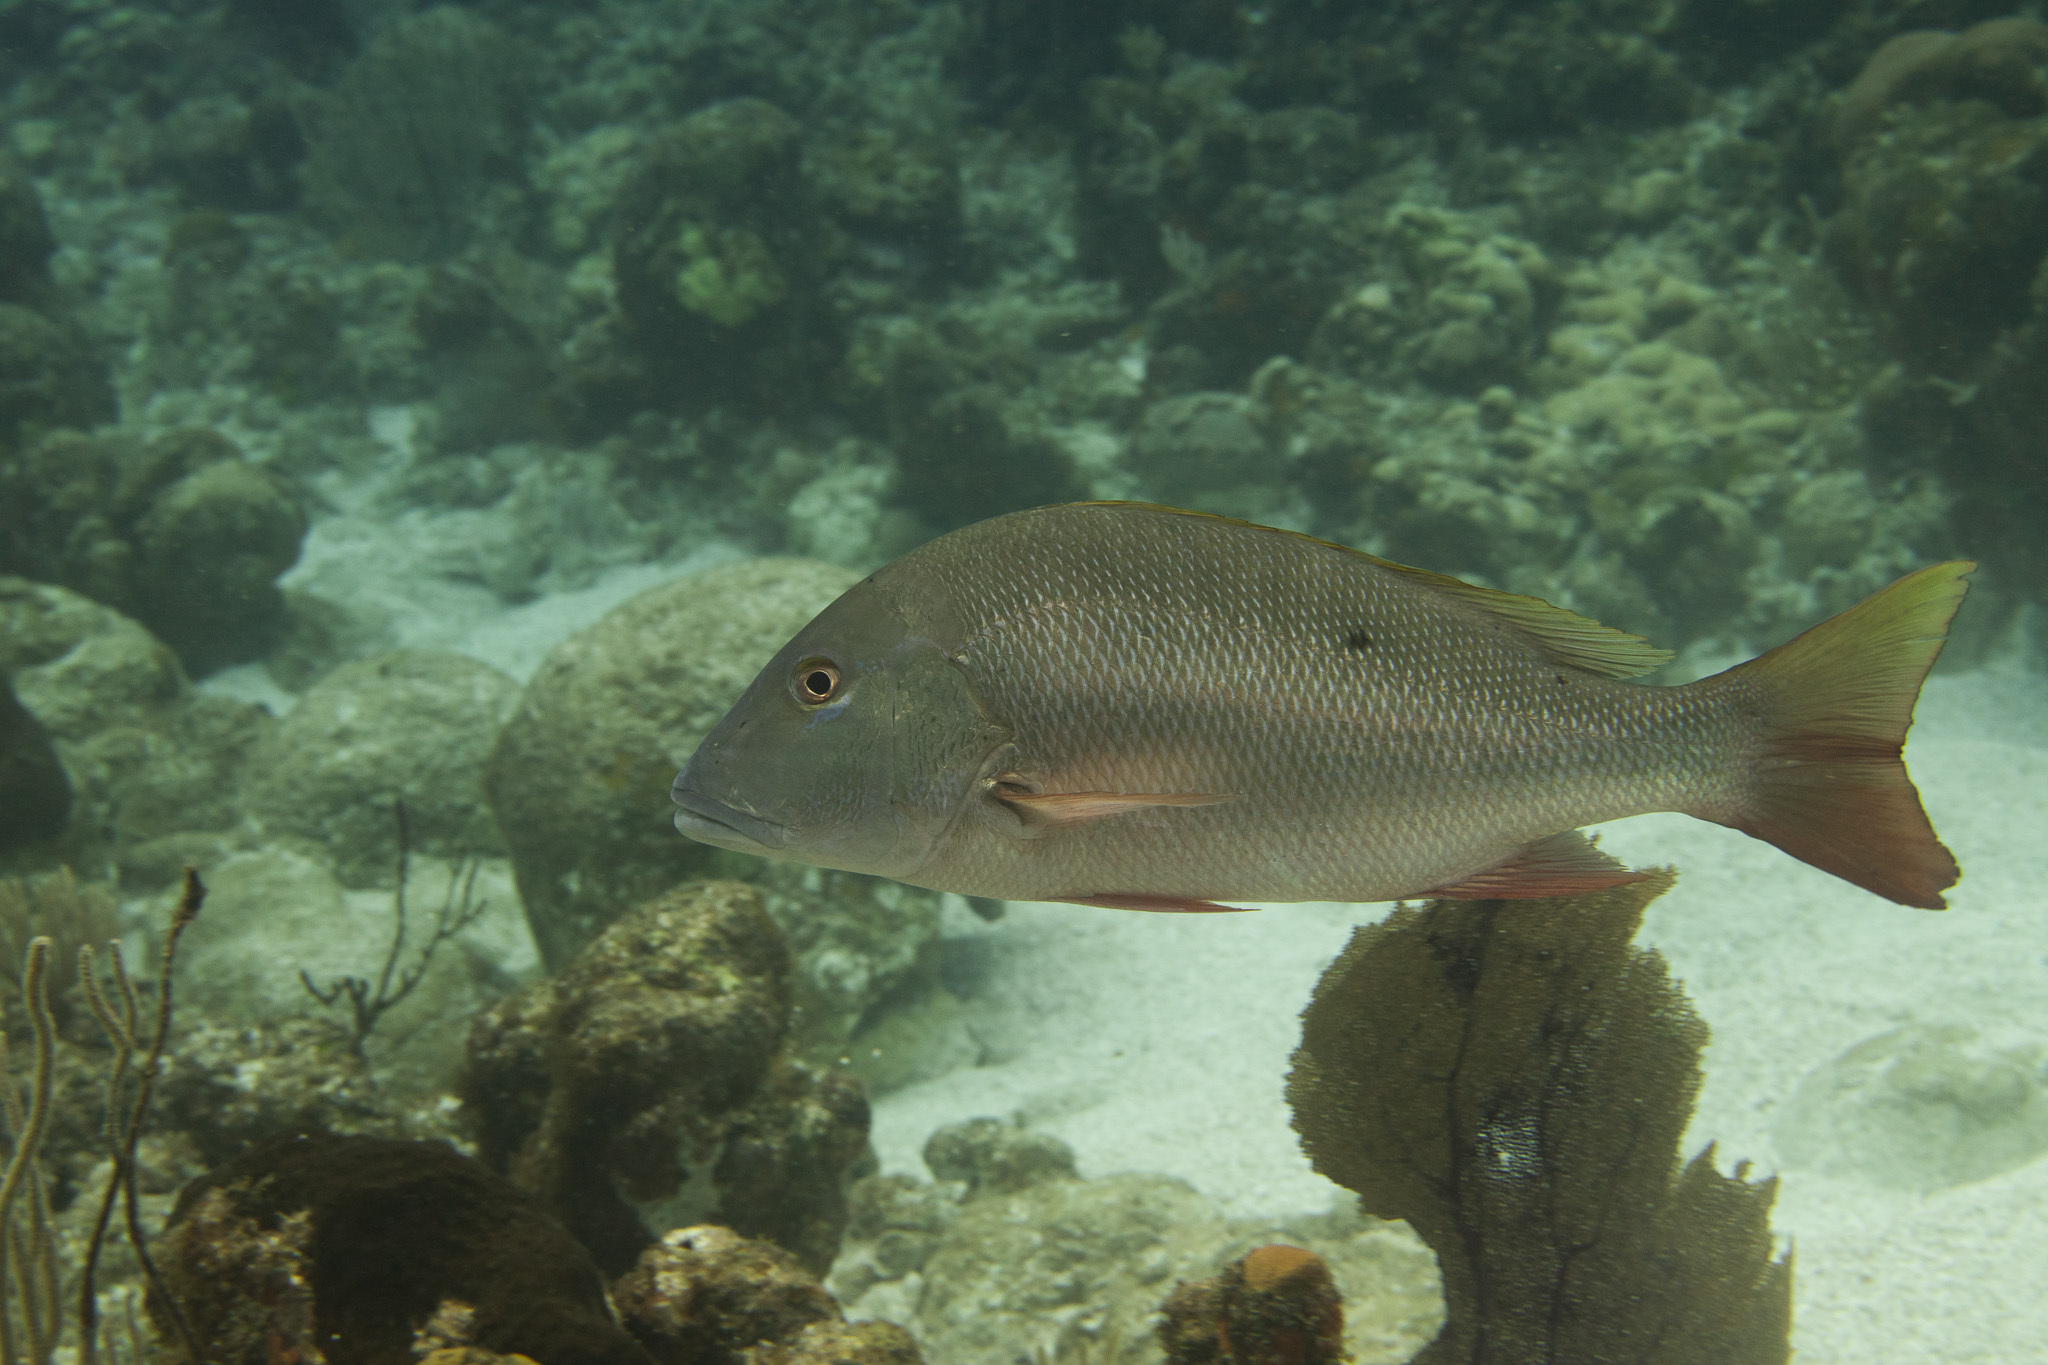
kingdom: Animalia
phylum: Chordata
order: Perciformes
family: Lutjanidae
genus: Lutjanus
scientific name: Lutjanus analis
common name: Mutton snapper
